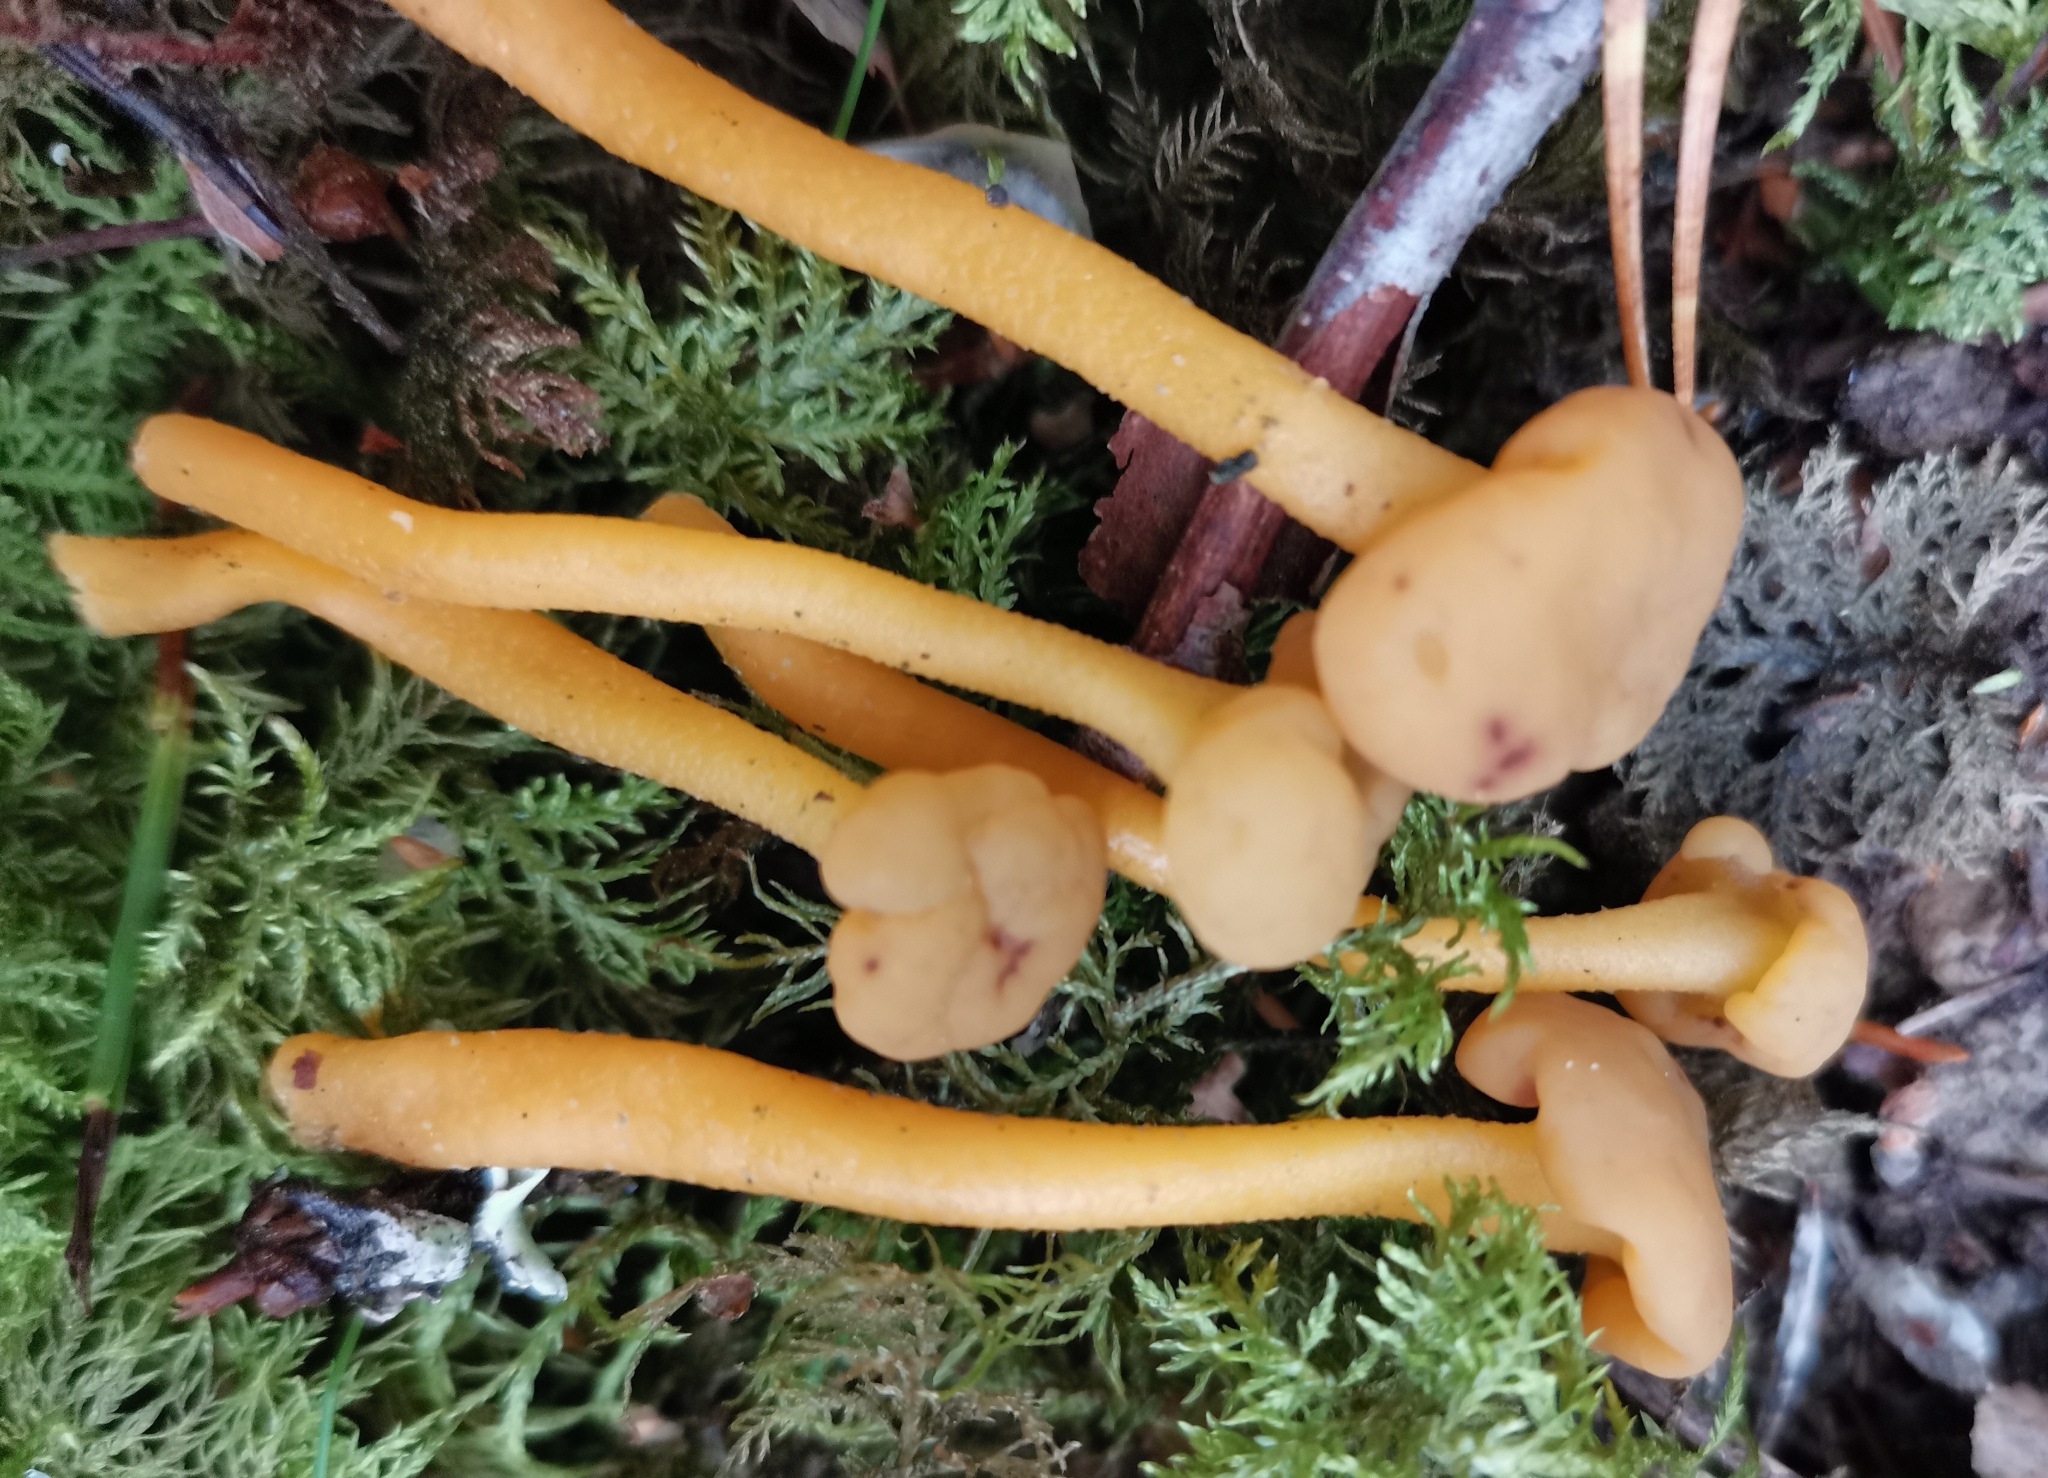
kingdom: Fungi
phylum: Ascomycota
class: Leotiomycetes
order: Leotiales
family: Leotiaceae
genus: Leotia
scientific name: Leotia lubrica
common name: Jellybaby
